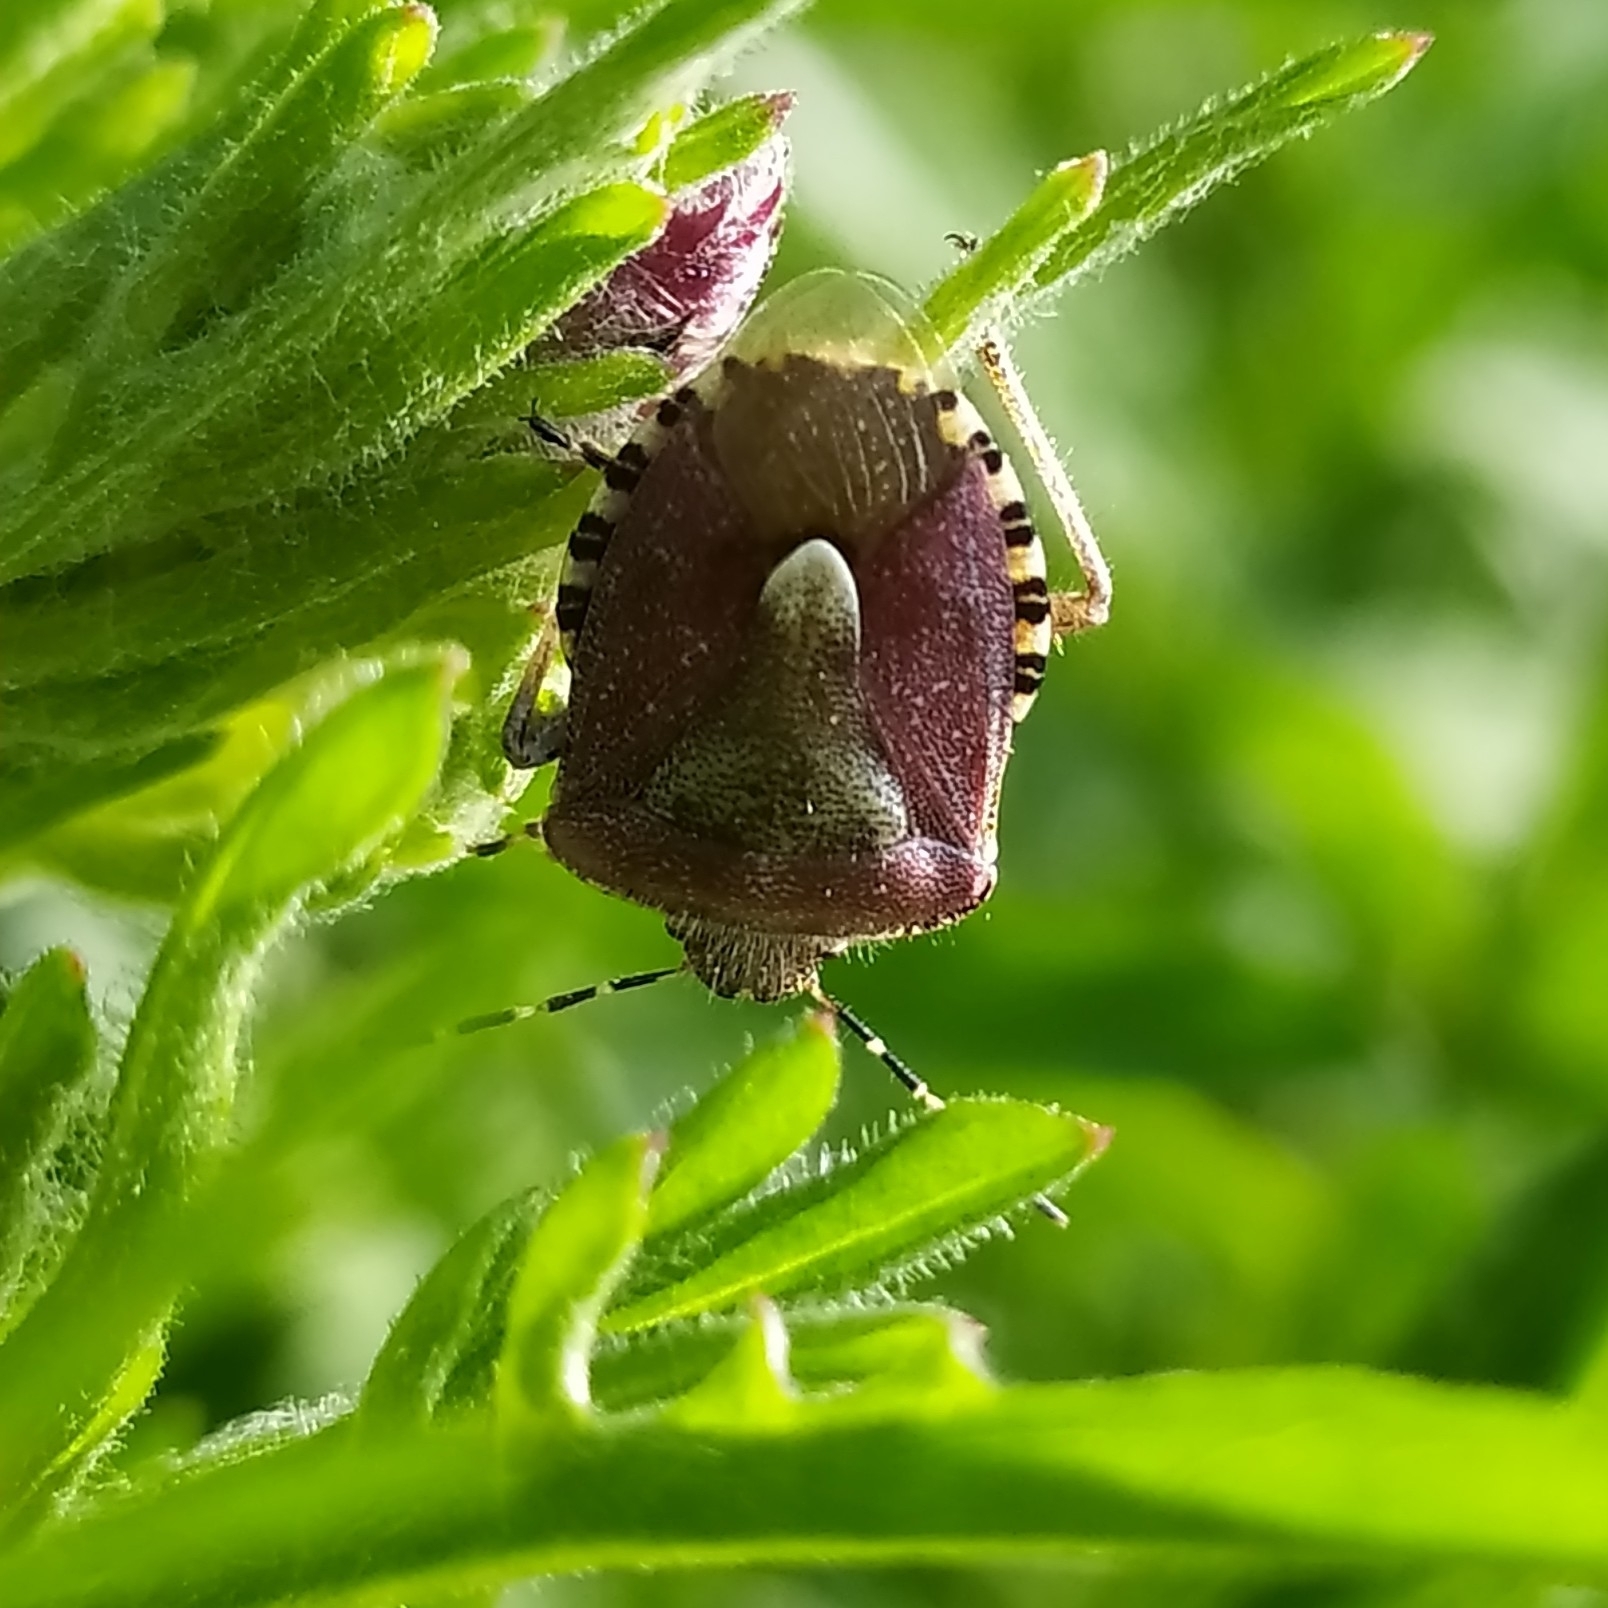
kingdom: Animalia
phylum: Arthropoda
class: Insecta
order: Hemiptera
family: Pentatomidae
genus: Dolycoris
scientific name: Dolycoris baccarum
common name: Sloe bug
